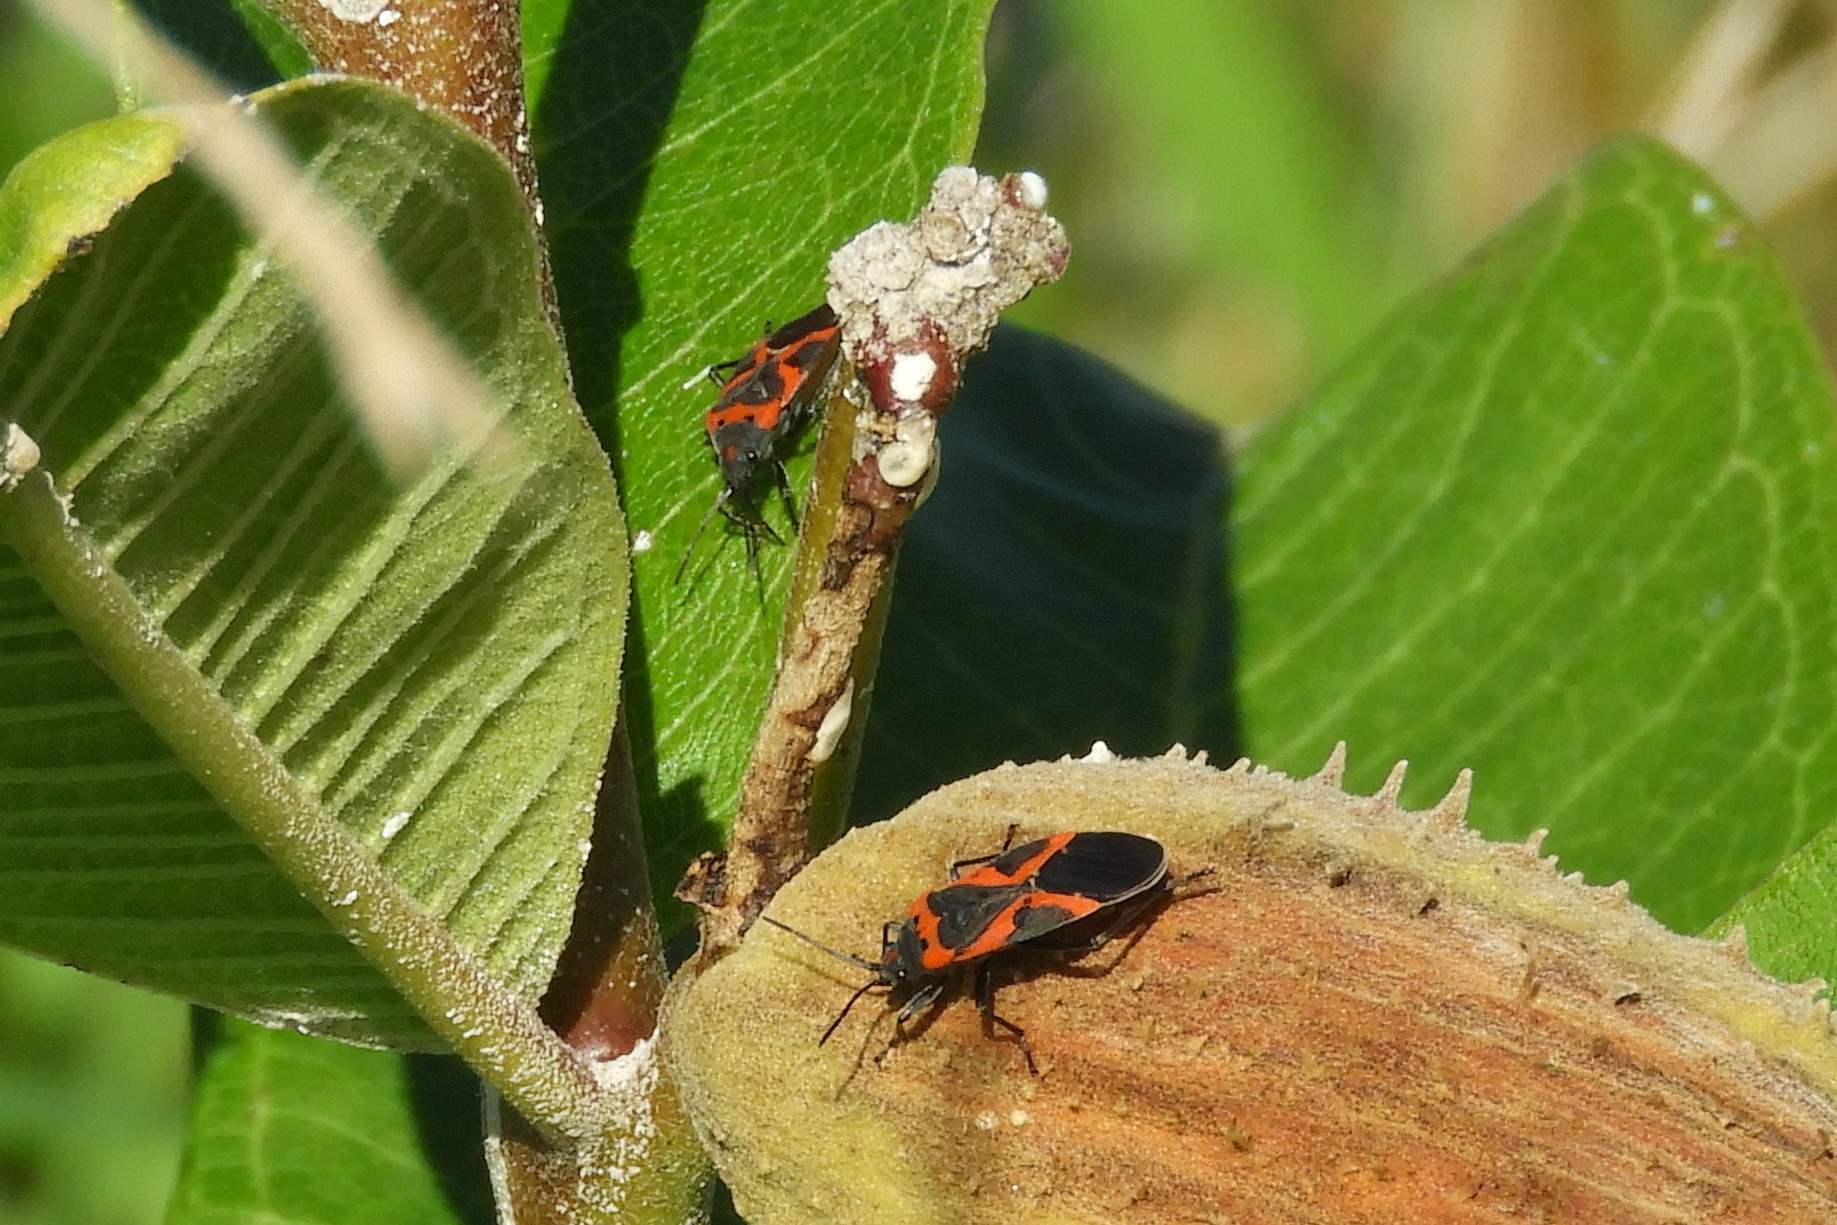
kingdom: Animalia
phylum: Arthropoda
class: Insecta
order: Hemiptera
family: Lygaeidae
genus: Lygaeus
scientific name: Lygaeus kalmii
